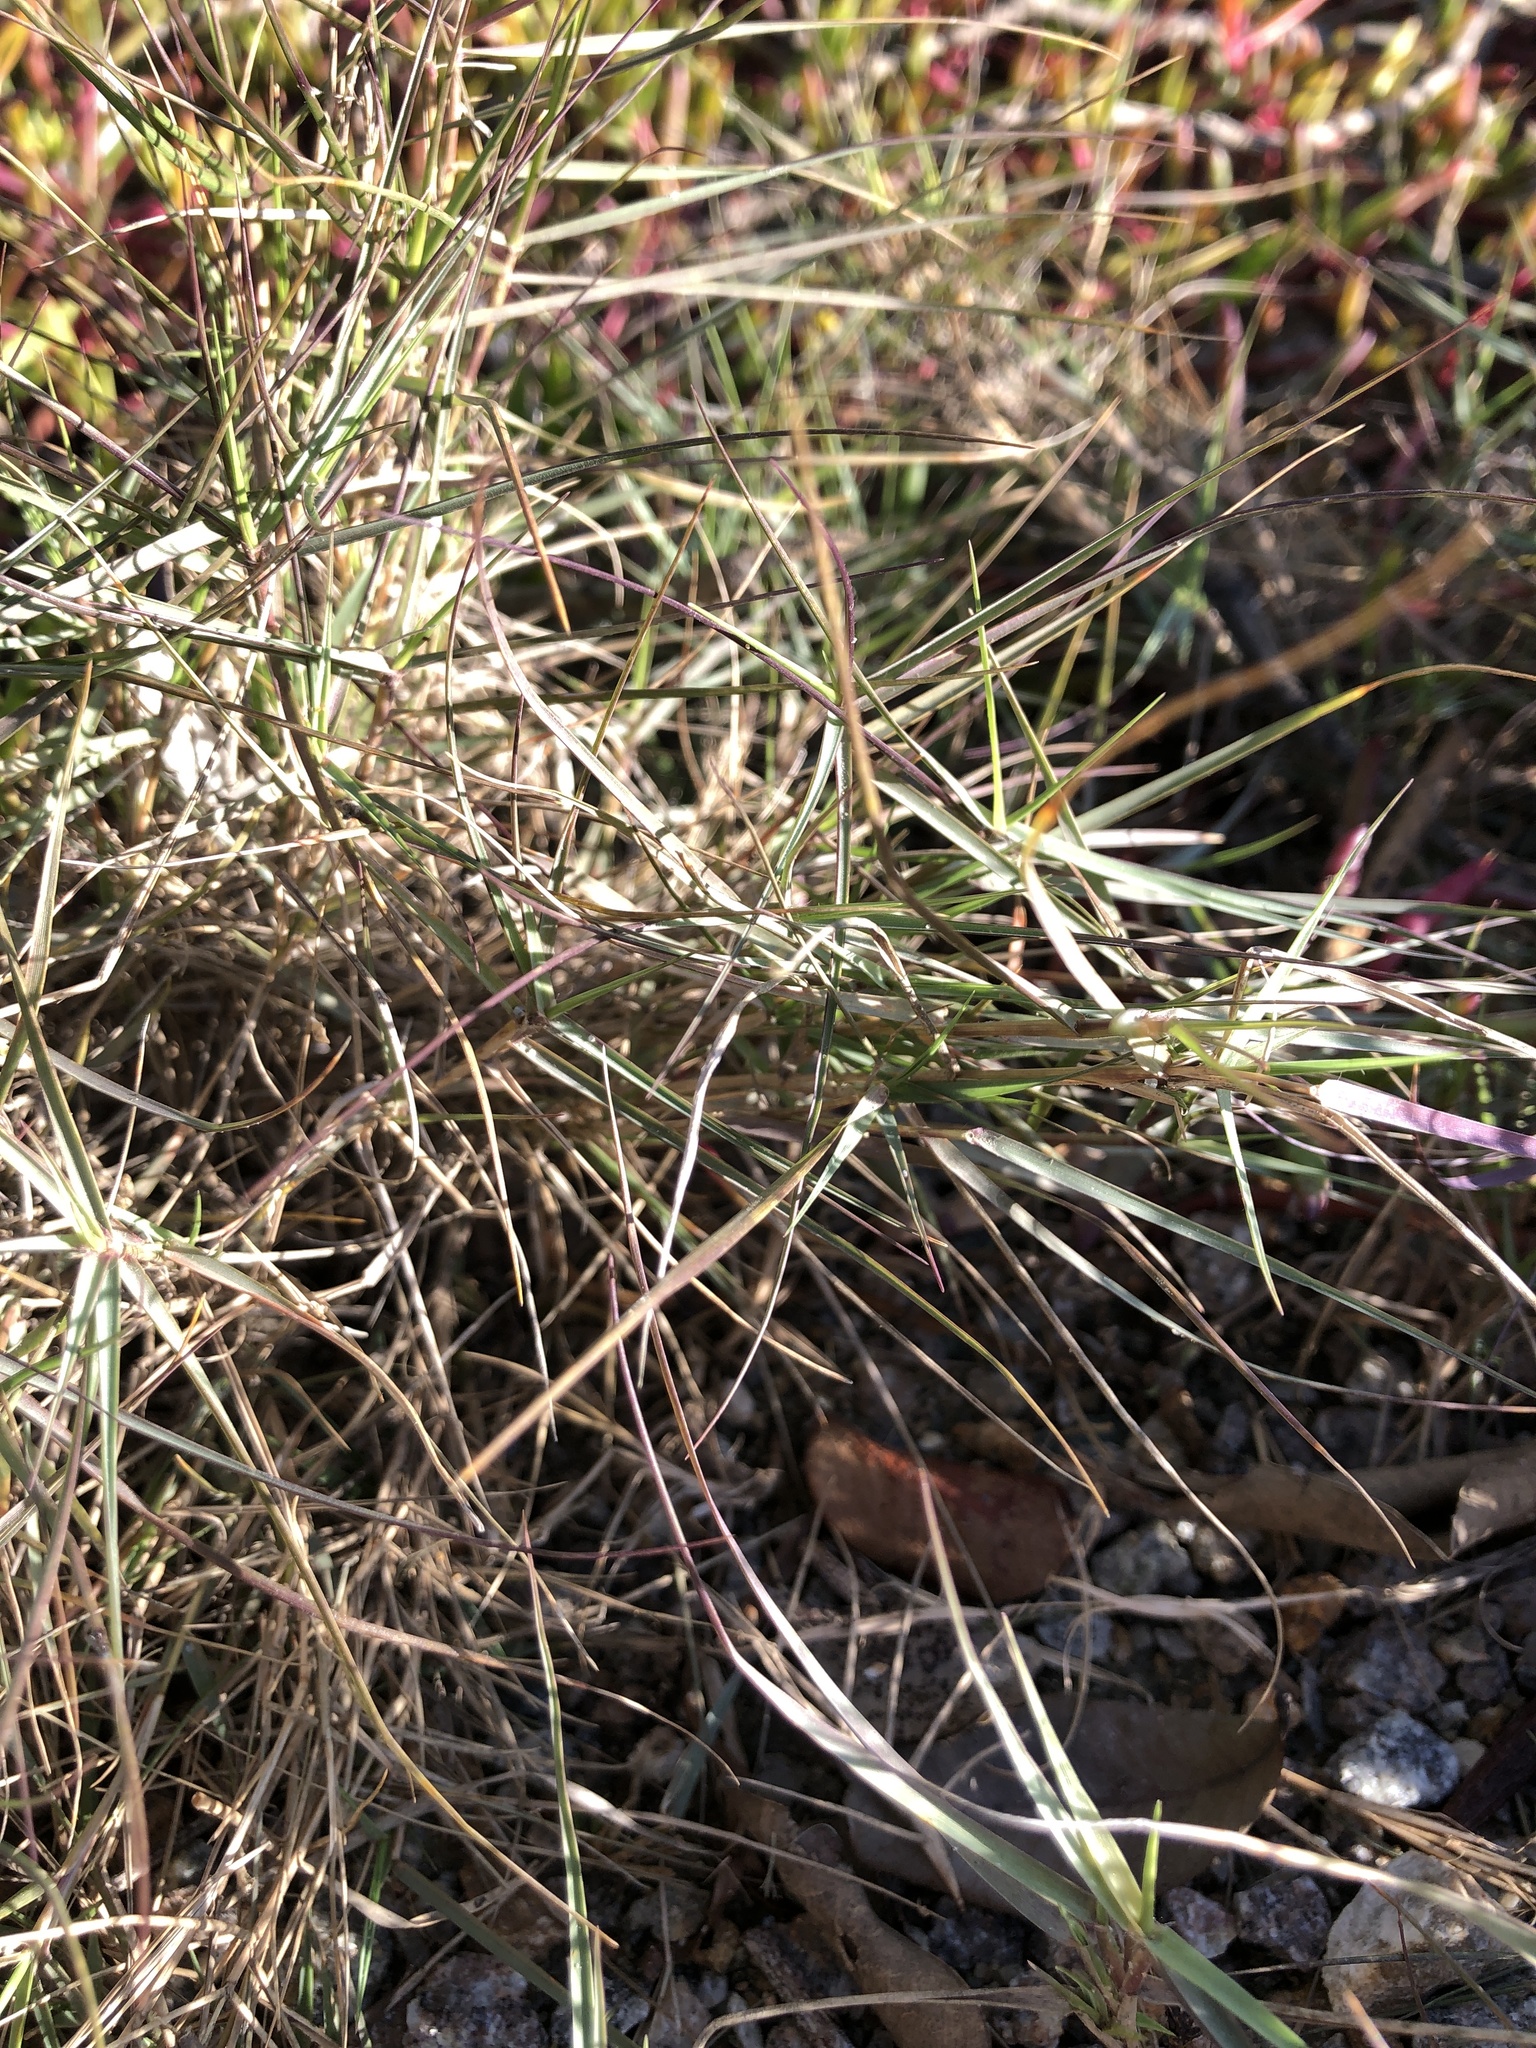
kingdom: Plantae
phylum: Tracheophyta
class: Liliopsida
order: Poales
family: Poaceae
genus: Sporobolus
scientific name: Sporobolus virginicus
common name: Beach dropseed
